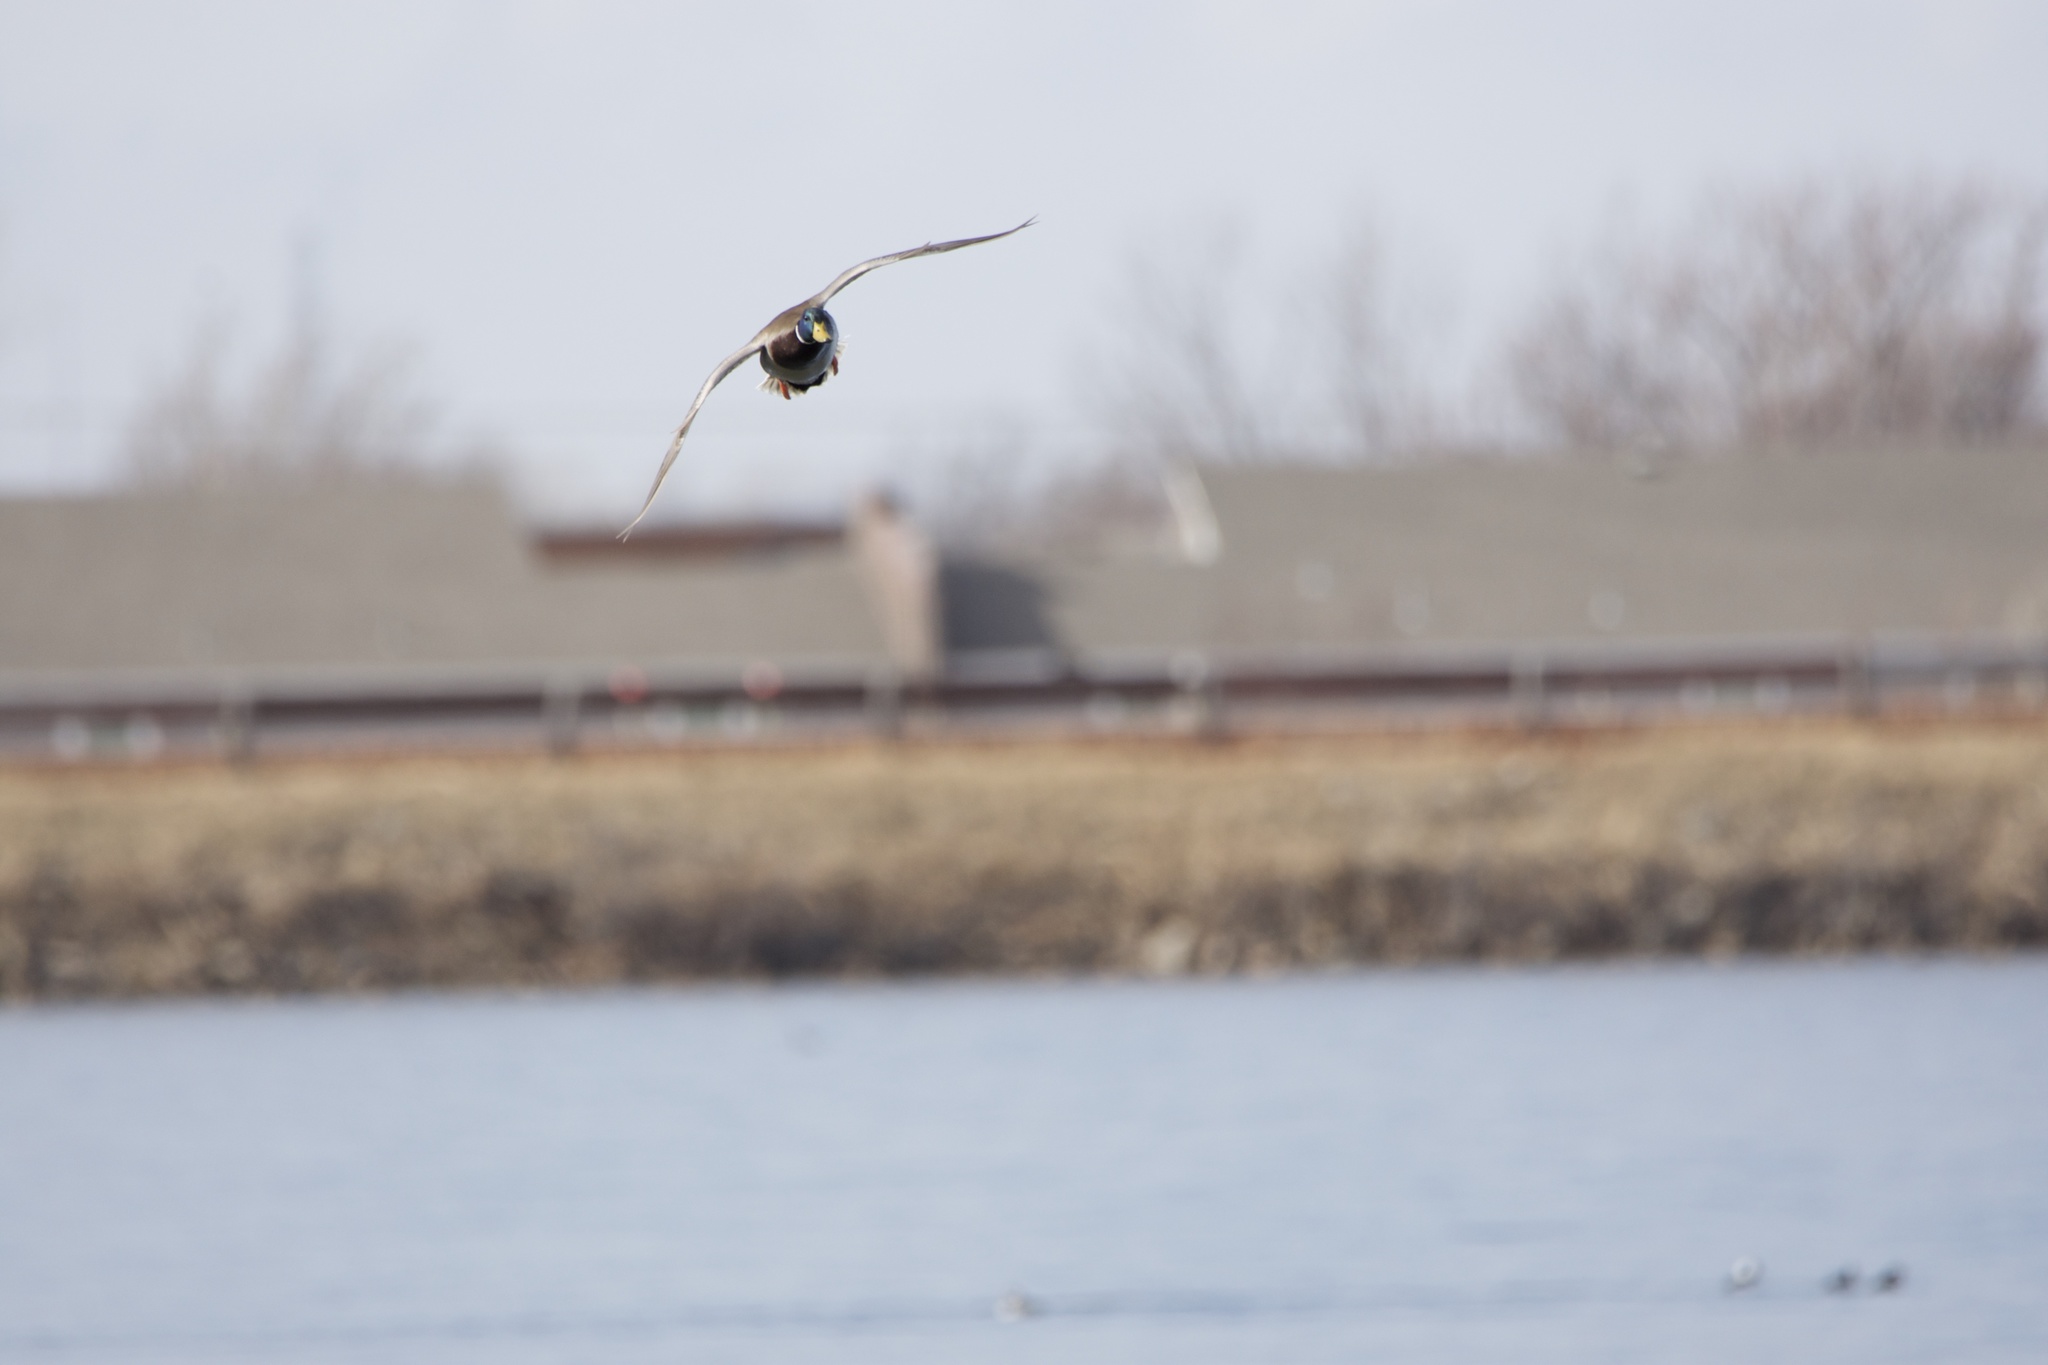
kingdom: Animalia
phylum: Chordata
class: Aves
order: Anseriformes
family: Anatidae
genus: Anas
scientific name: Anas platyrhynchos
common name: Mallard
